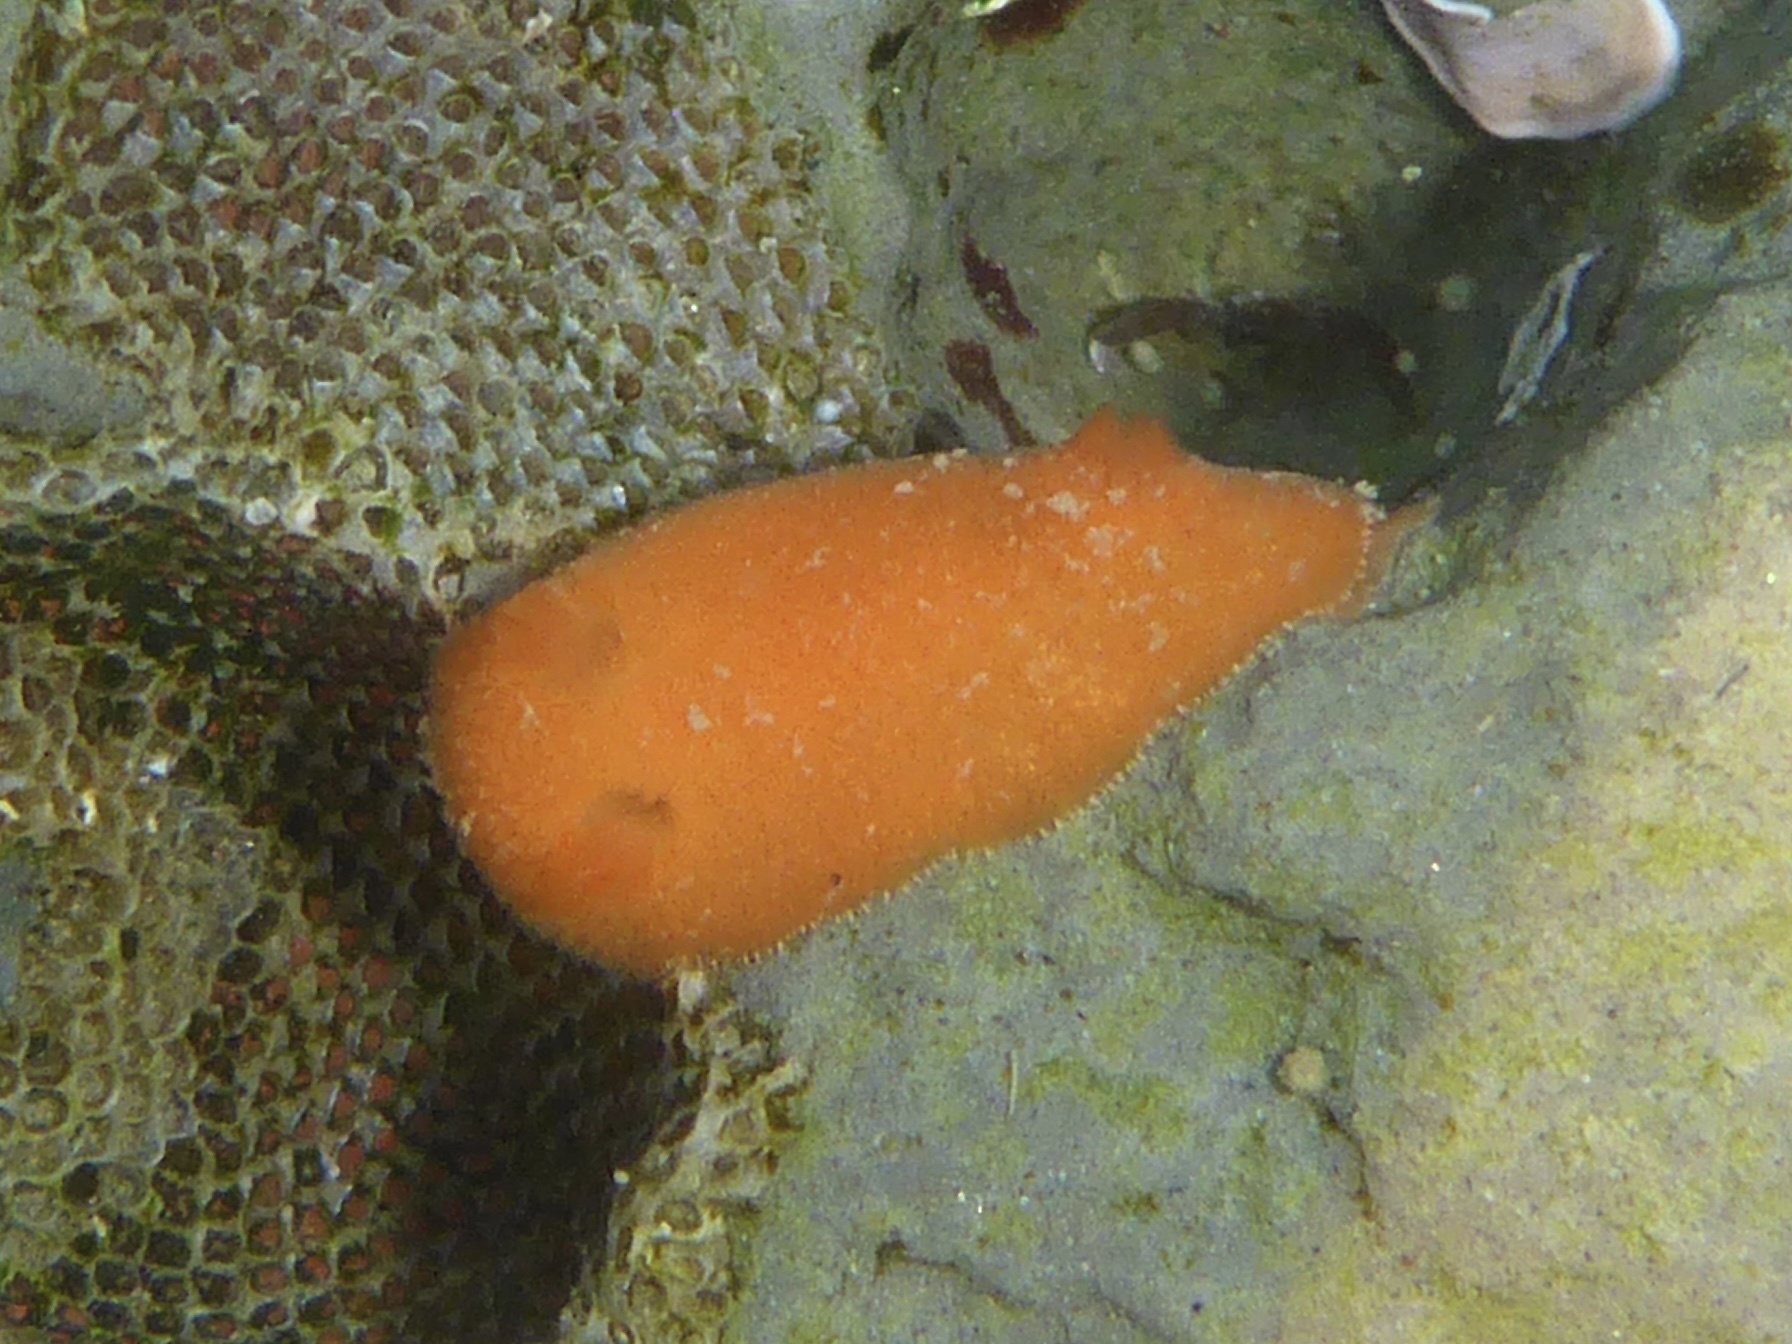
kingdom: Animalia
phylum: Mollusca
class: Gastropoda
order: Nudibranchia
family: Discodorididae
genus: Rostanga
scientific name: Rostanga pulchra
